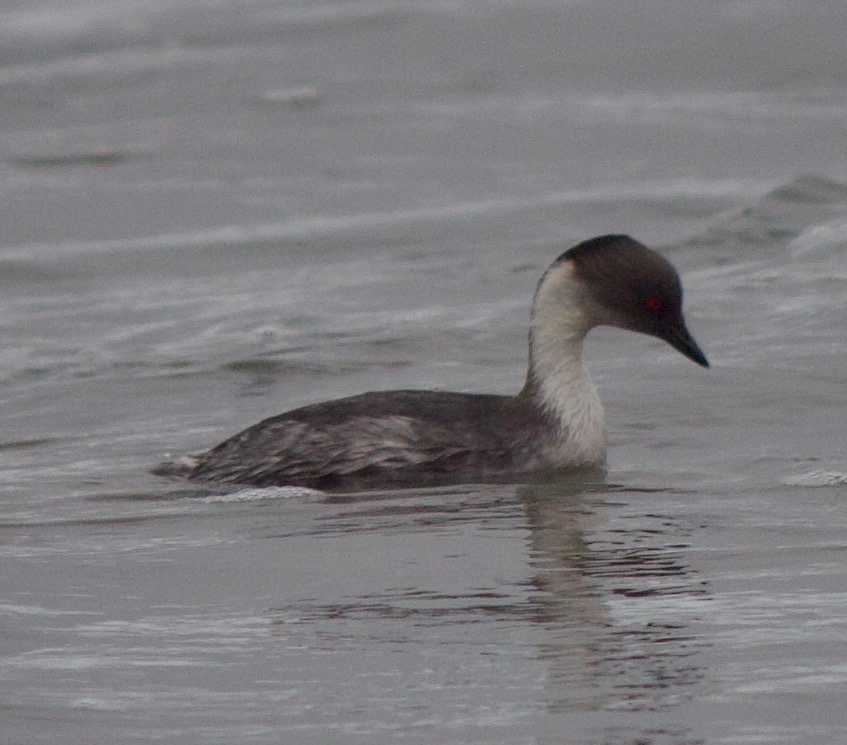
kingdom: Animalia
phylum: Chordata
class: Aves
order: Podicipediformes
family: Podicipedidae
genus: Podiceps
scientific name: Podiceps occipitalis
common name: Silvery grebe
